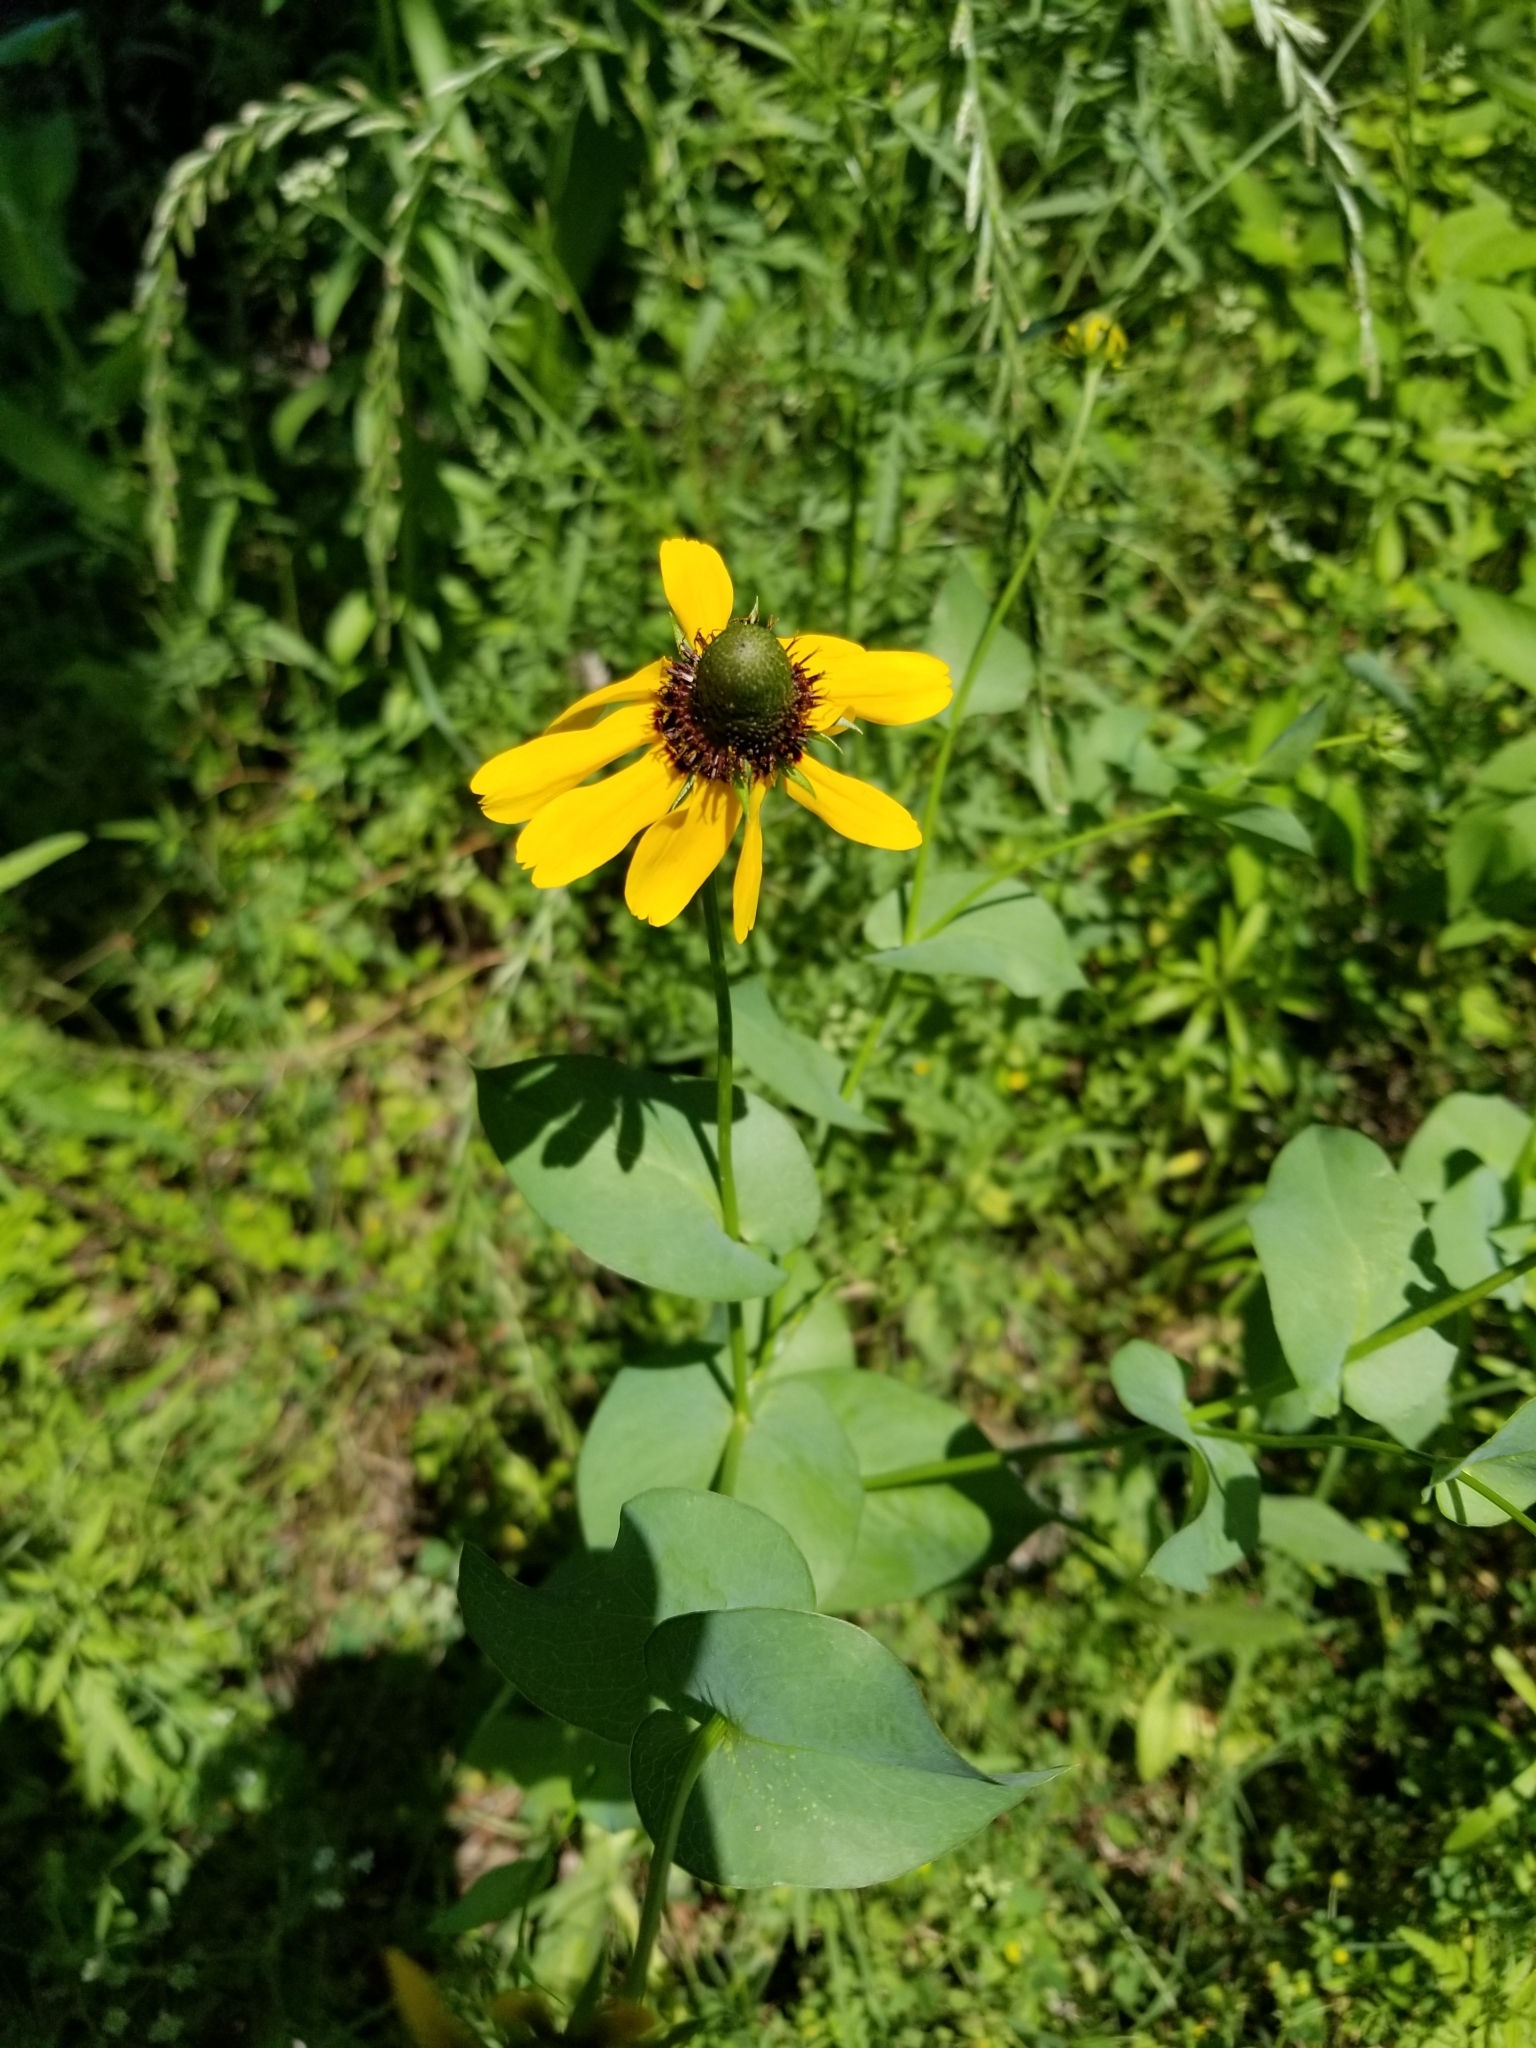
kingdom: Plantae
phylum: Tracheophyta
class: Magnoliopsida
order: Asterales
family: Asteraceae
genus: Rudbeckia
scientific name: Rudbeckia amplexicaulis
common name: Clasping-leaf coneflower
